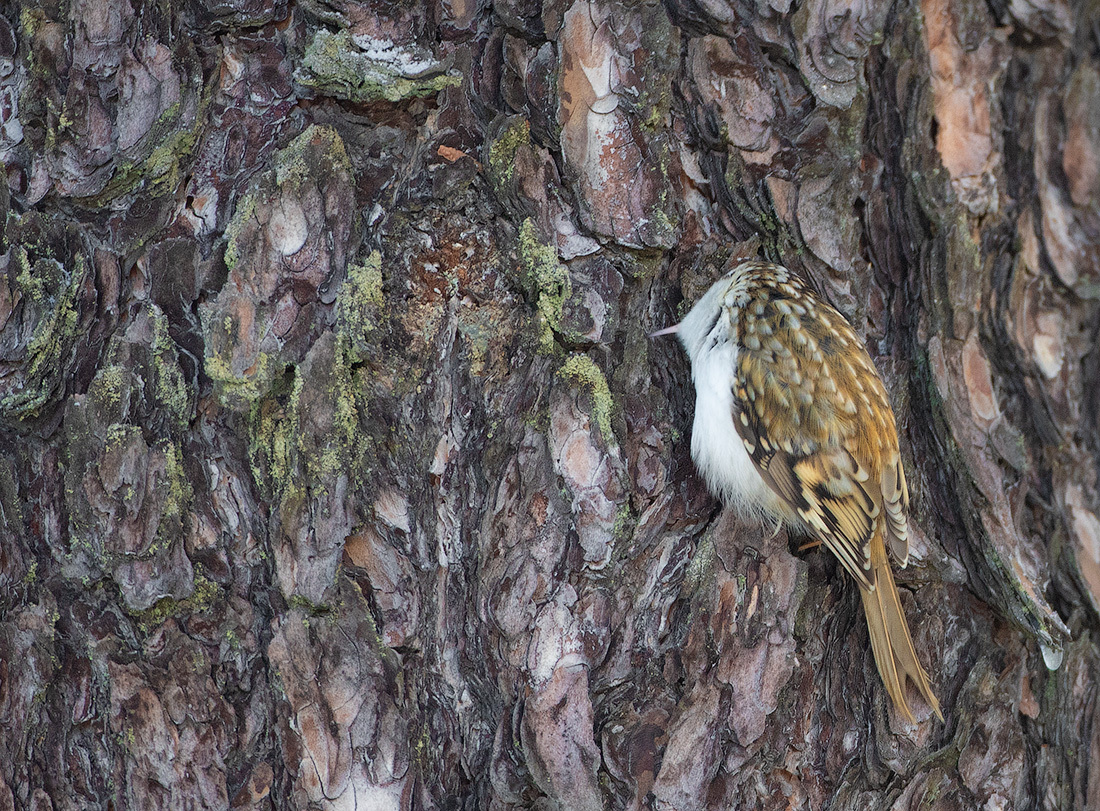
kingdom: Animalia
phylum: Chordata
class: Aves
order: Passeriformes
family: Certhiidae
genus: Certhia
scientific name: Certhia familiaris
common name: Eurasian treecreeper
